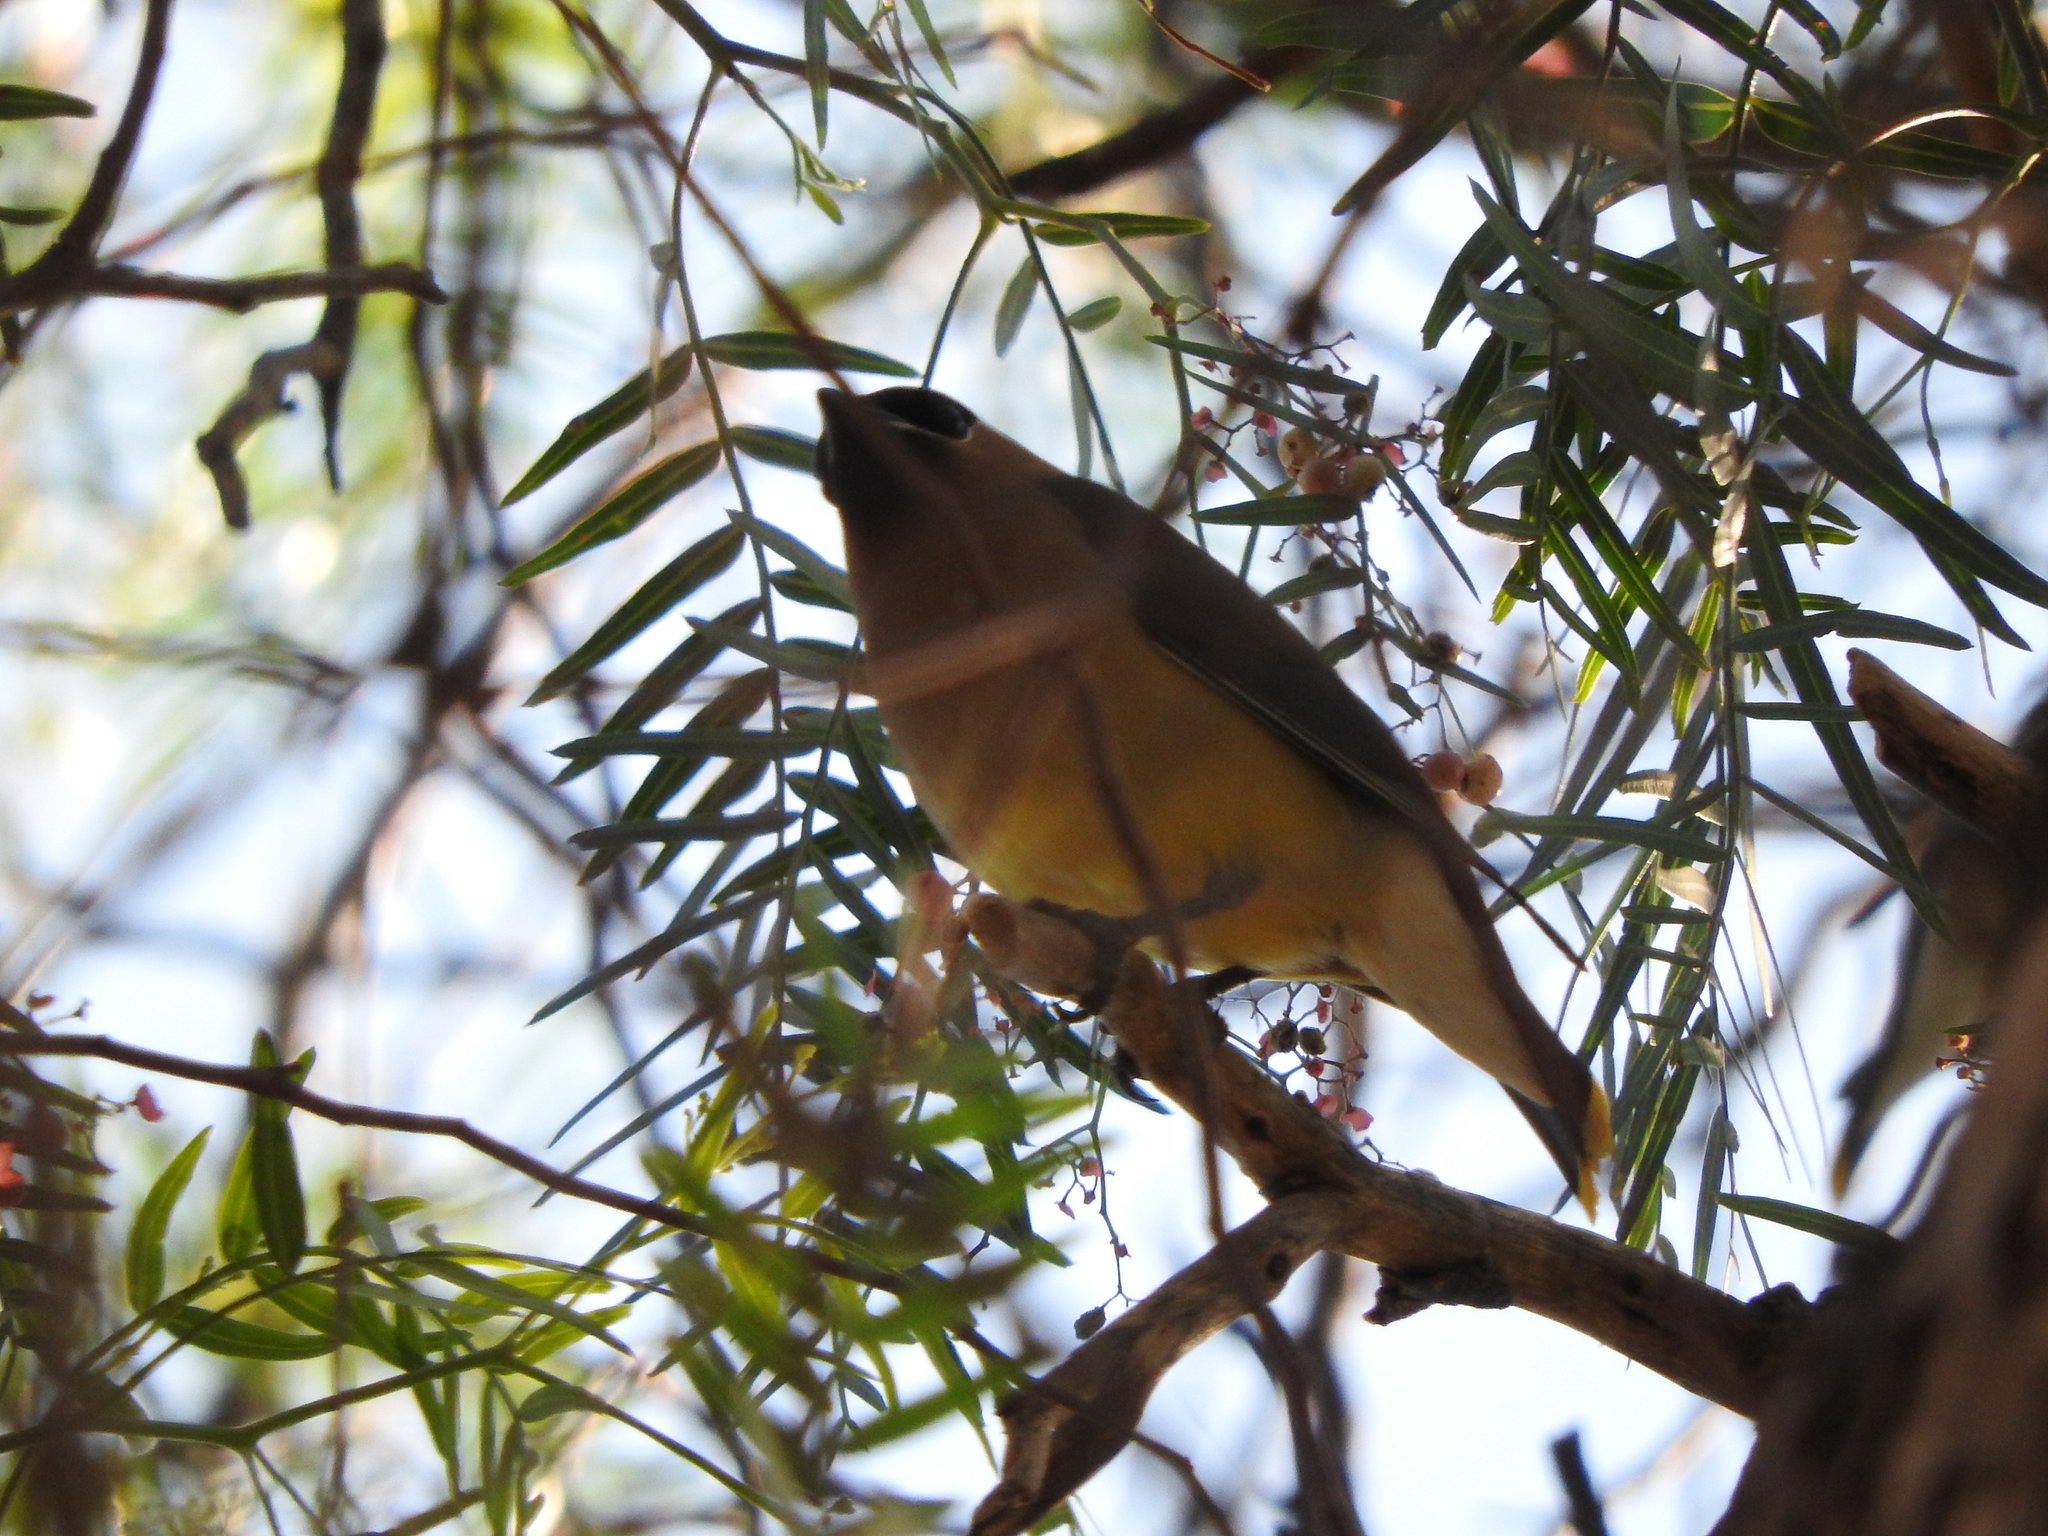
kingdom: Animalia
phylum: Chordata
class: Aves
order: Passeriformes
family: Bombycillidae
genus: Bombycilla
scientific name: Bombycilla cedrorum
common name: Cedar waxwing
